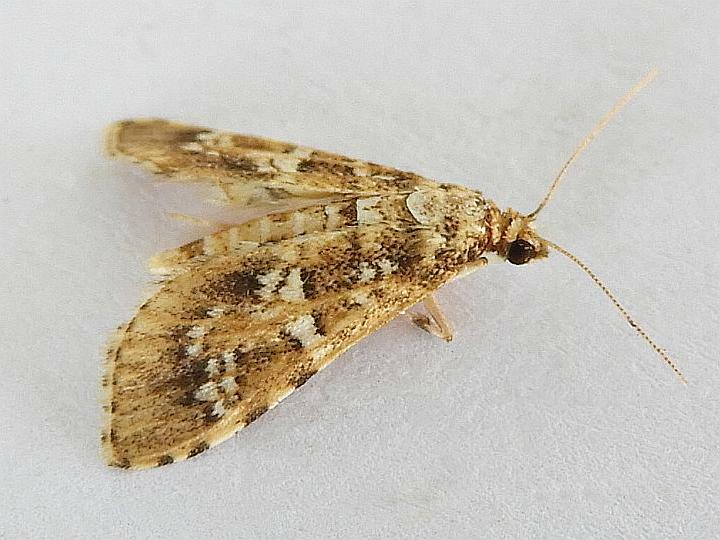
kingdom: Animalia
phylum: Arthropoda
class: Insecta
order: Lepidoptera
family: Crambidae
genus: Samea
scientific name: Samea multiplicalis
